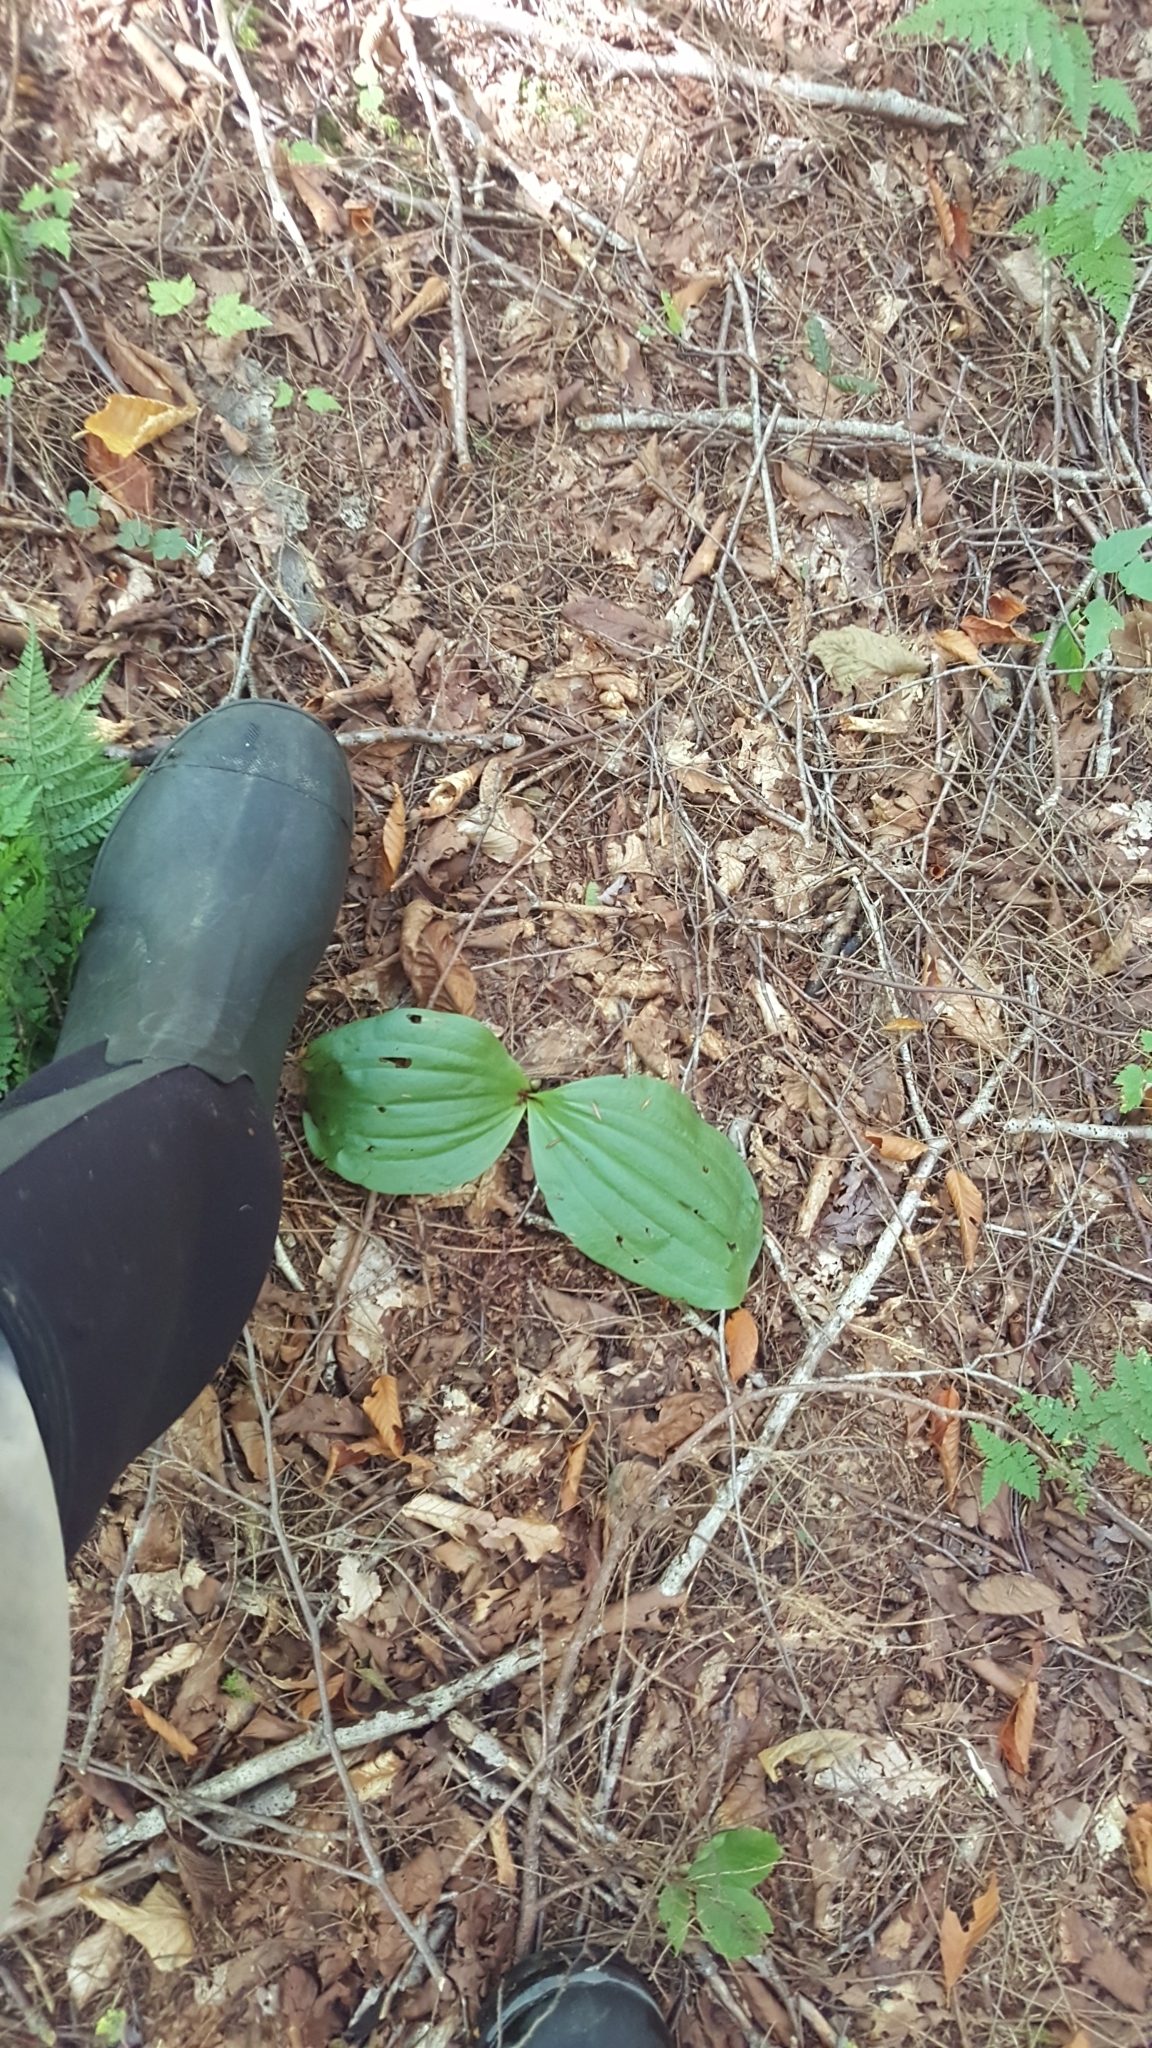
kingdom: Plantae
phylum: Tracheophyta
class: Liliopsida
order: Asparagales
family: Orchidaceae
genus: Cypripedium
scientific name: Cypripedium acaule
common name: Pink lady's-slipper
